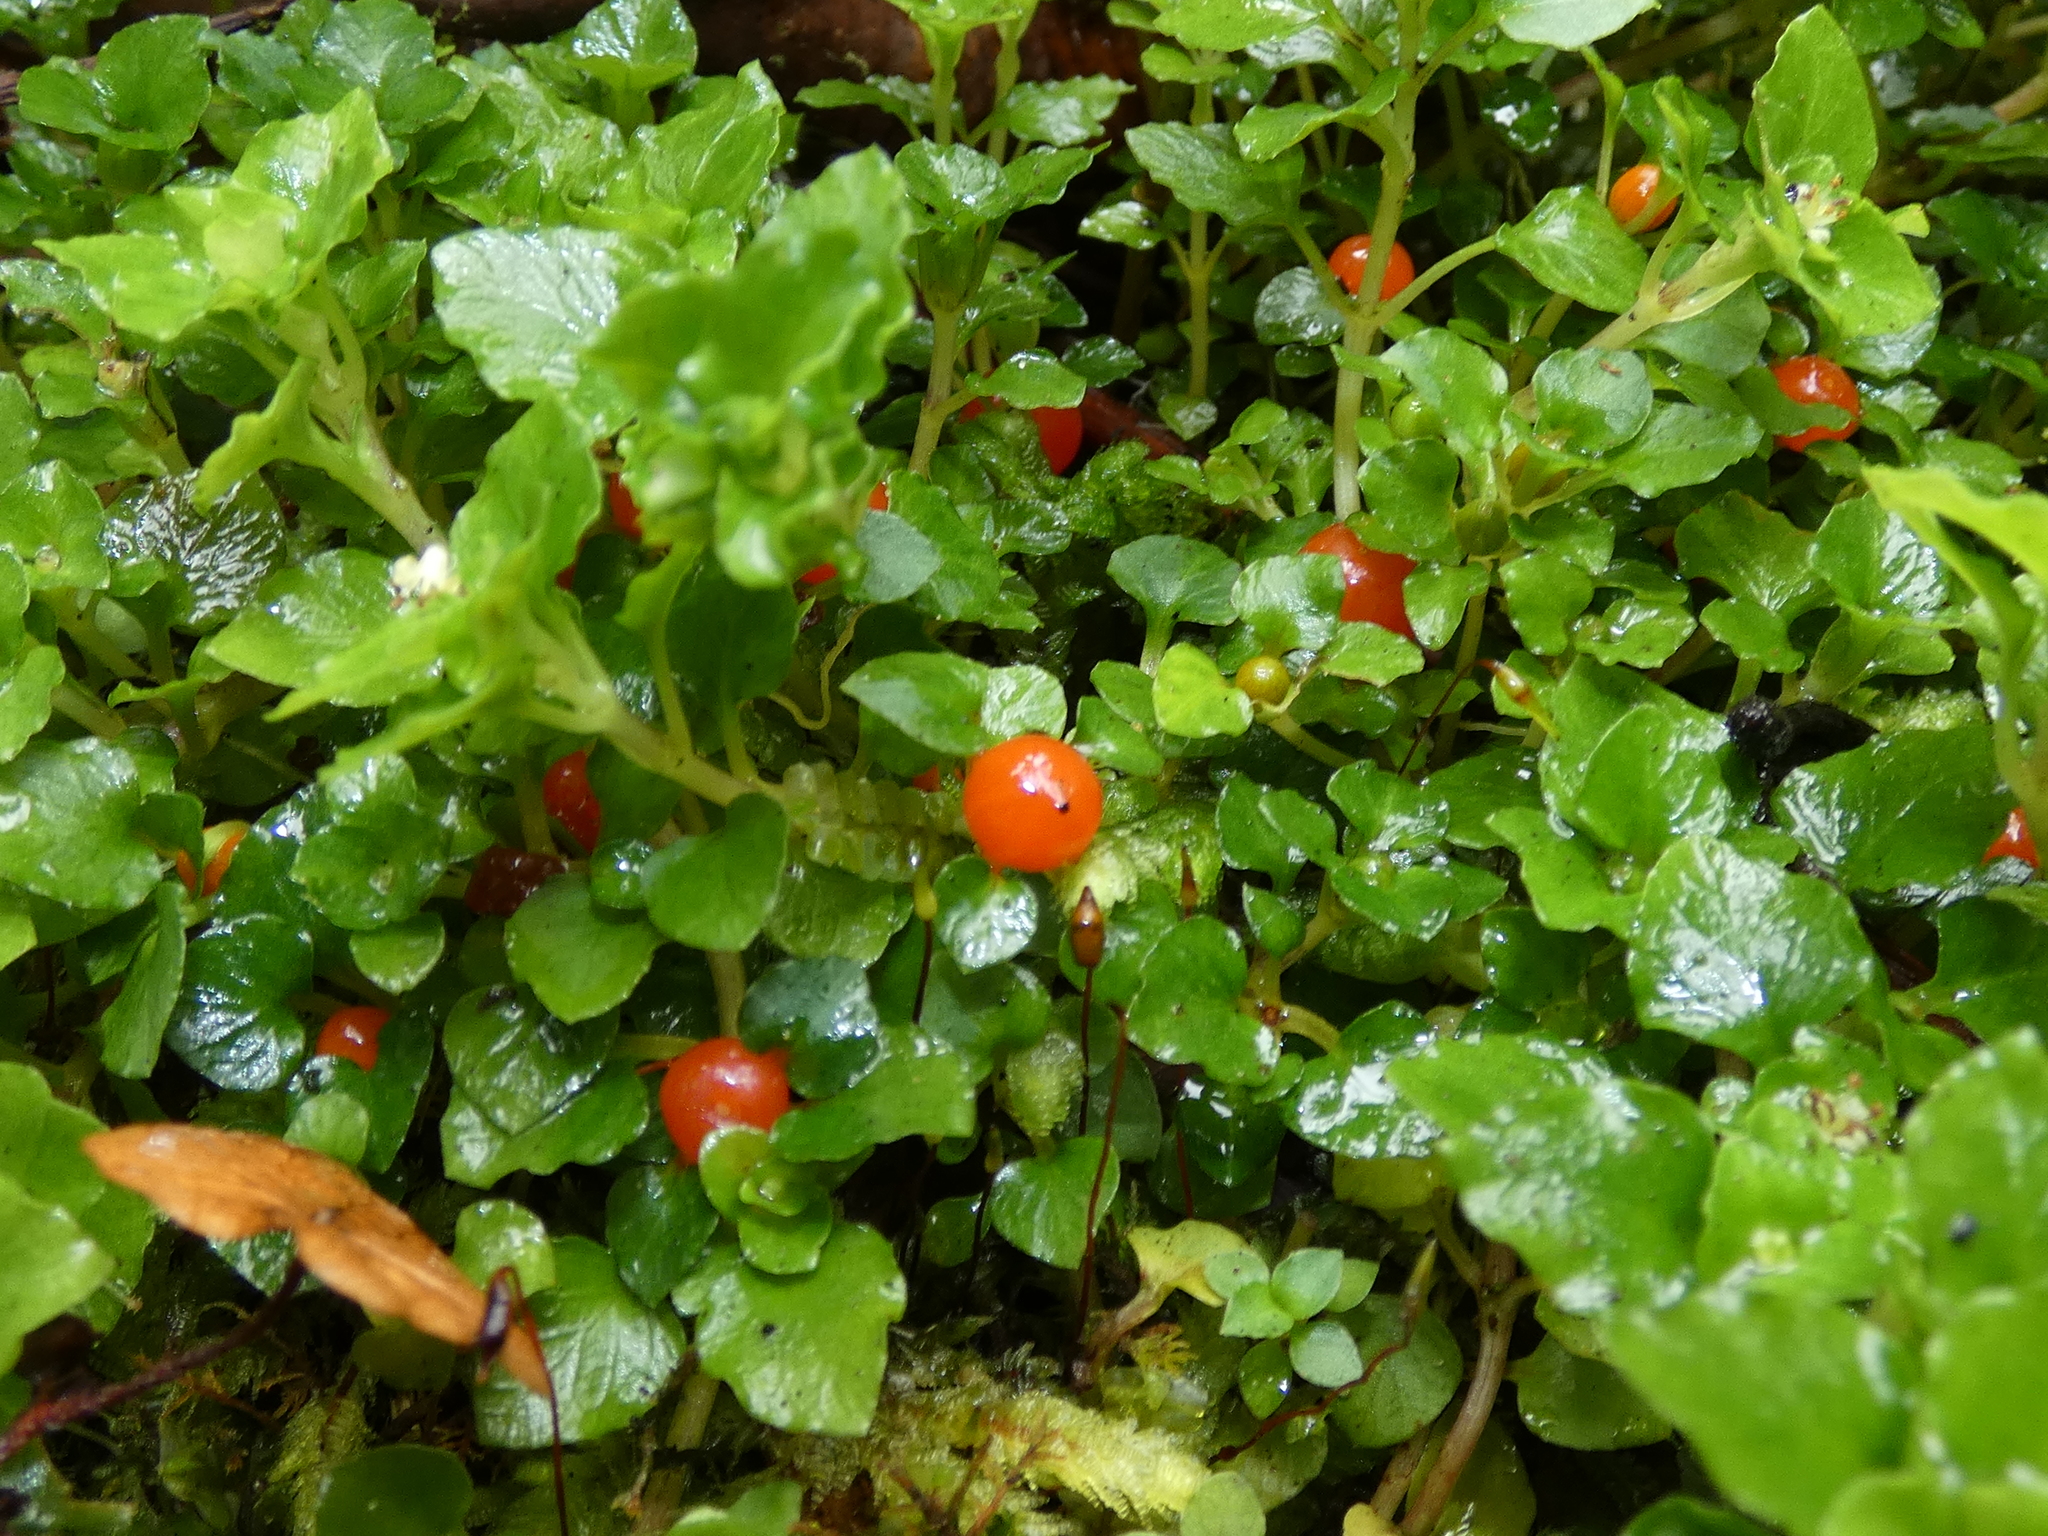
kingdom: Plantae
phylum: Tracheophyta
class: Magnoliopsida
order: Gentianales
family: Rubiaceae
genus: Nertera
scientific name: Nertera granadensis
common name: Beadplant
